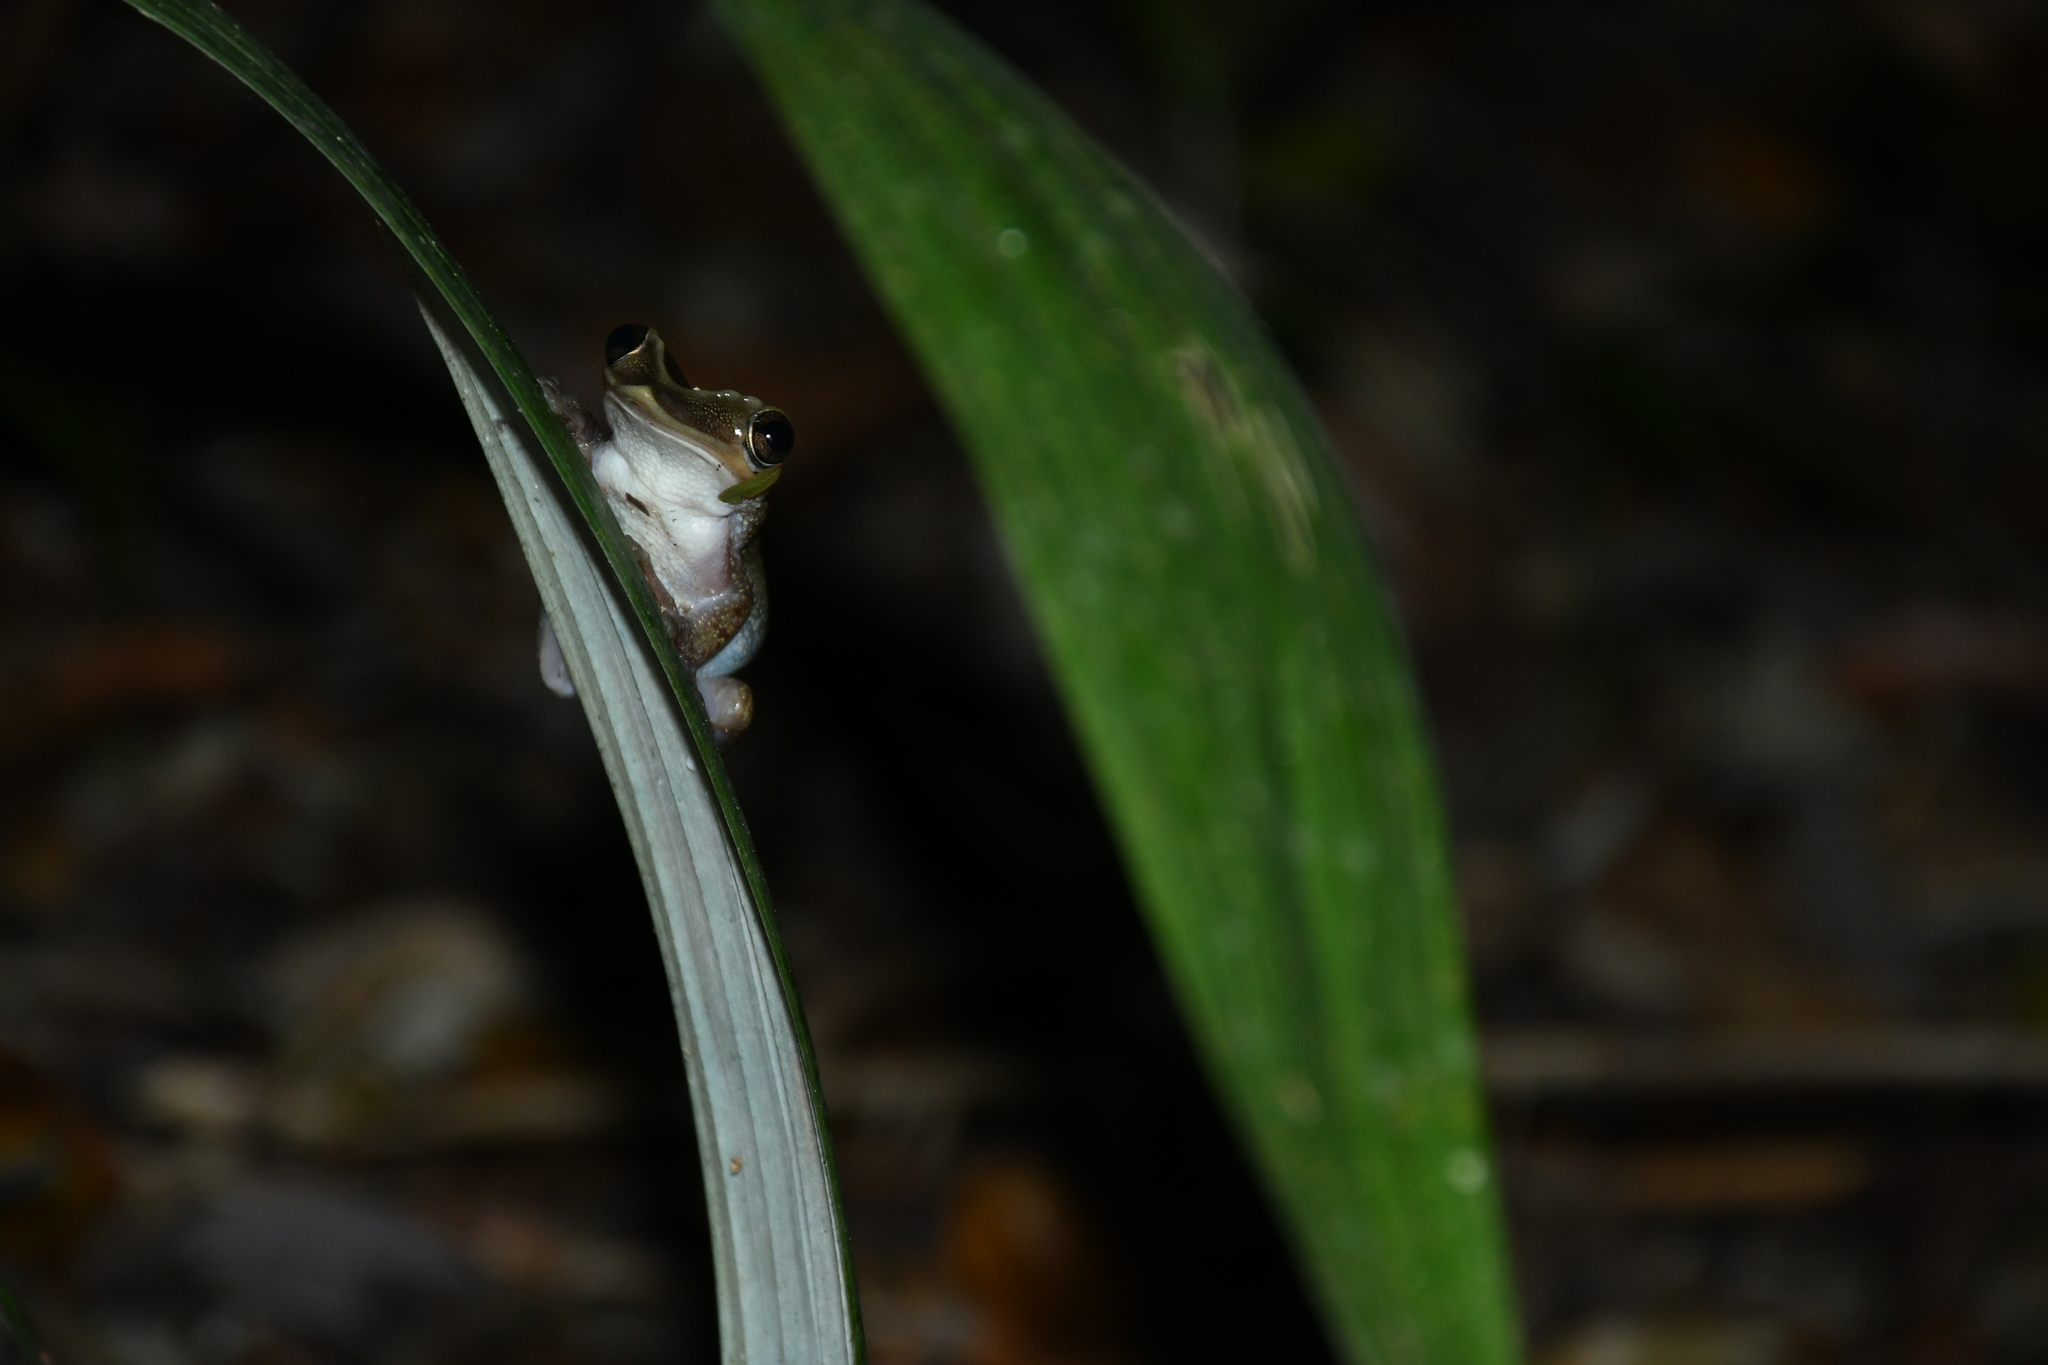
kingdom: Animalia
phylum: Chordata
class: Amphibia
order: Anura
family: Hylidae
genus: Triprion
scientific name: Triprion petasatus
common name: Yucatecan casque-headed treefrog
